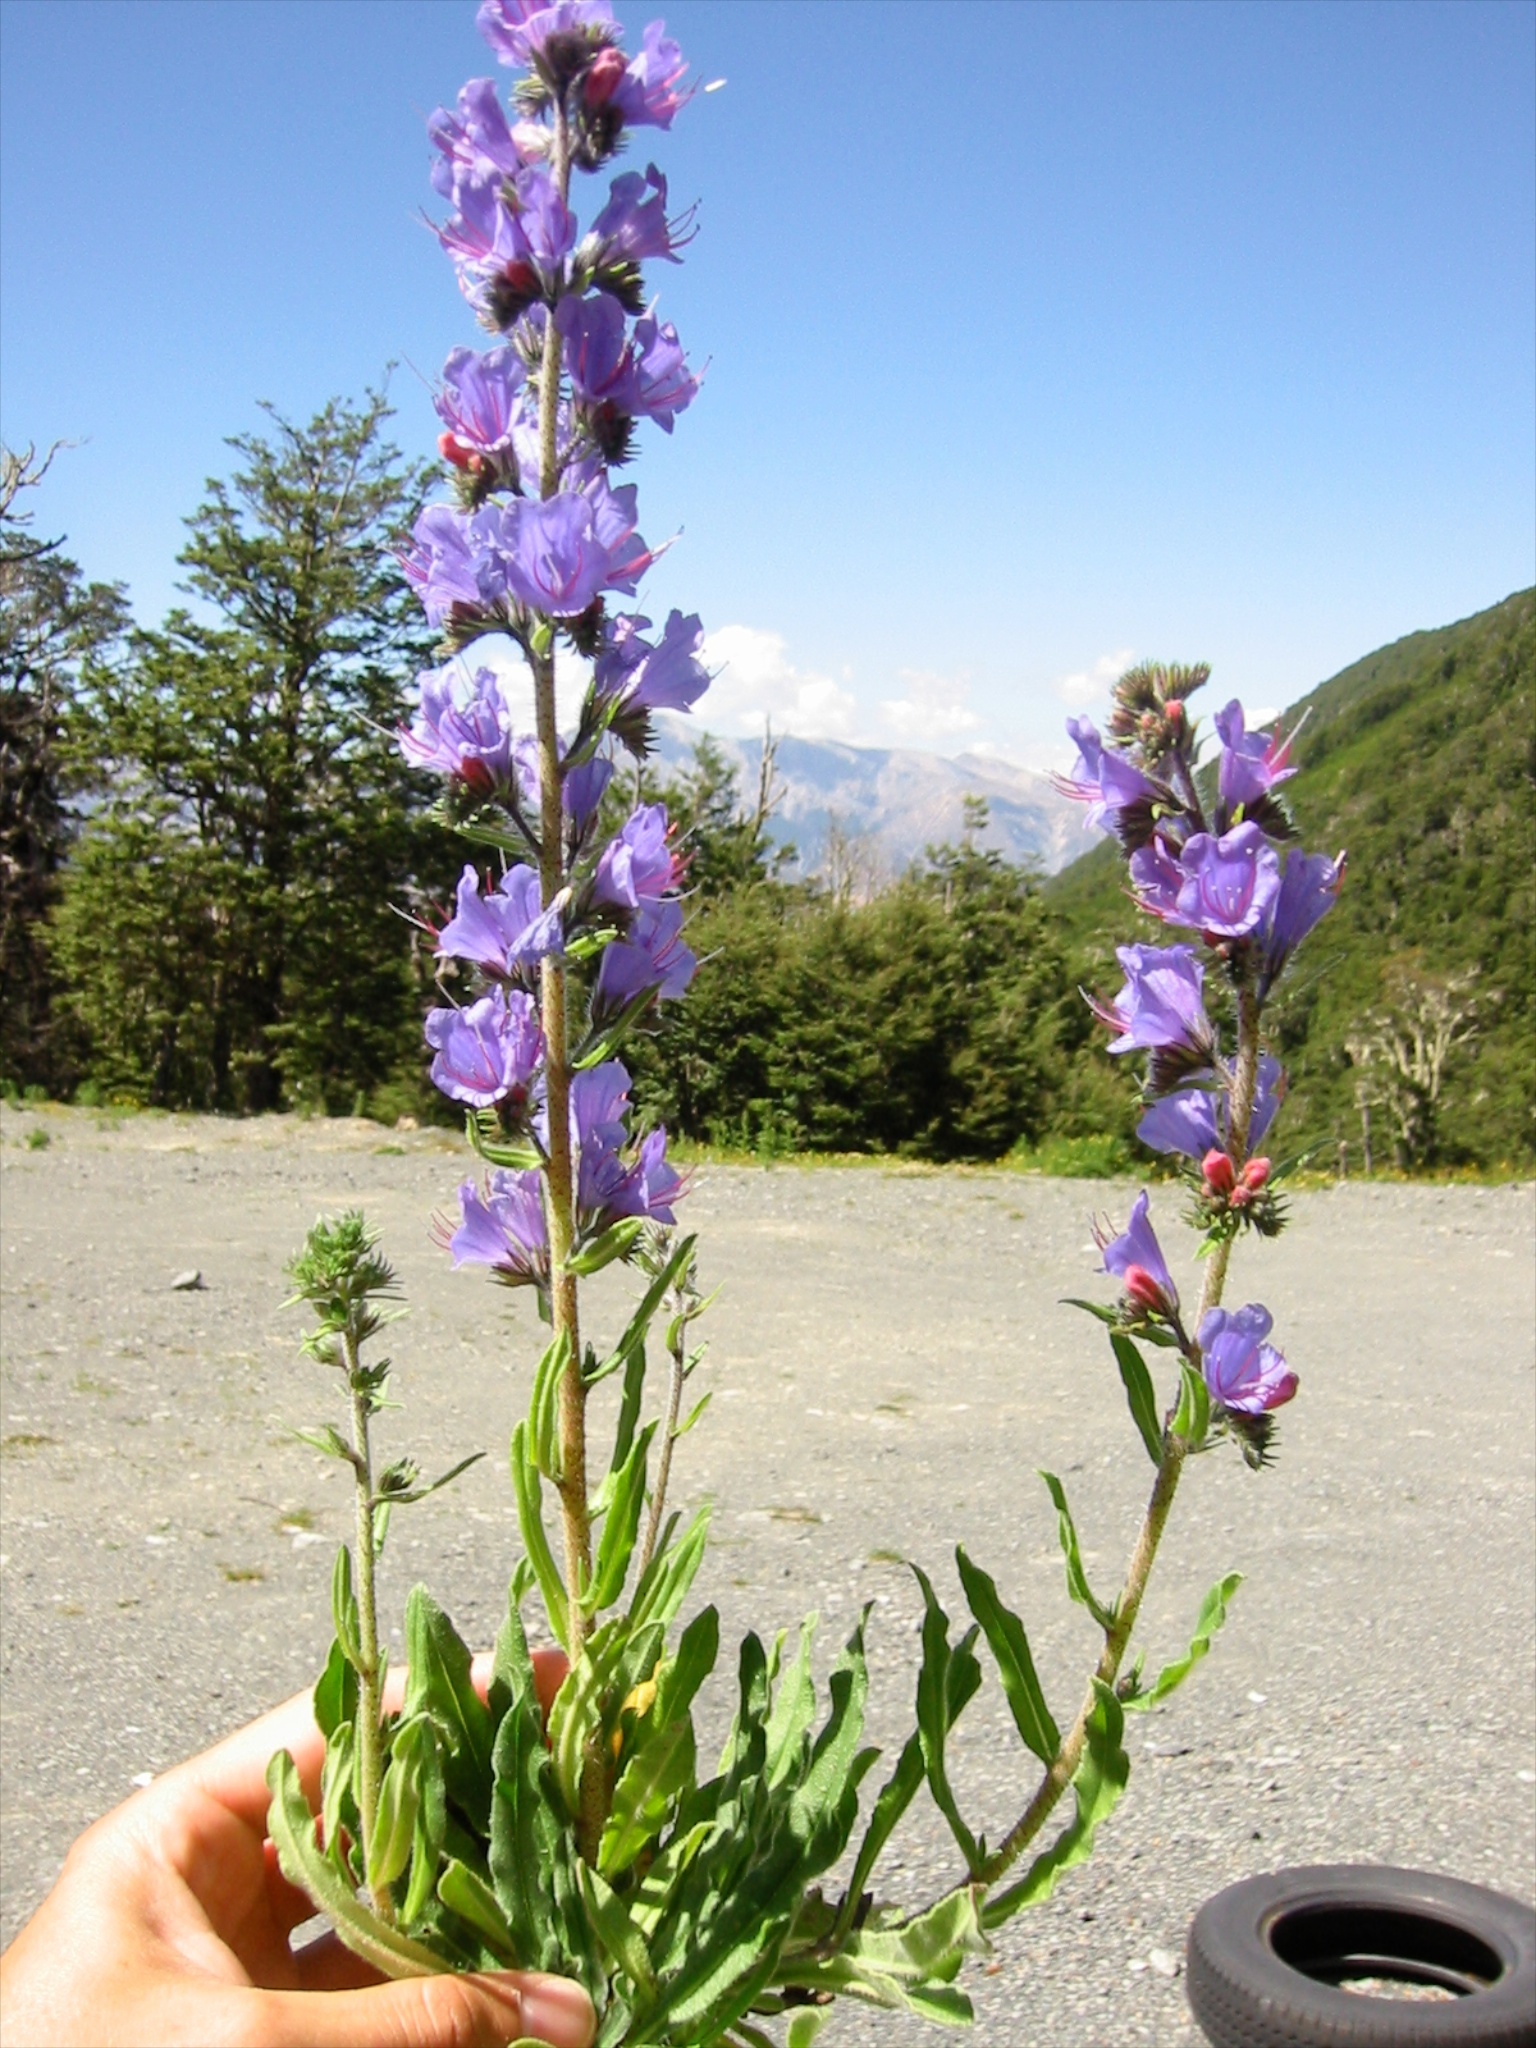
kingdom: Plantae
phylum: Tracheophyta
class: Magnoliopsida
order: Boraginales
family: Boraginaceae
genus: Echium
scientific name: Echium vulgare
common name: Common viper's bugloss
